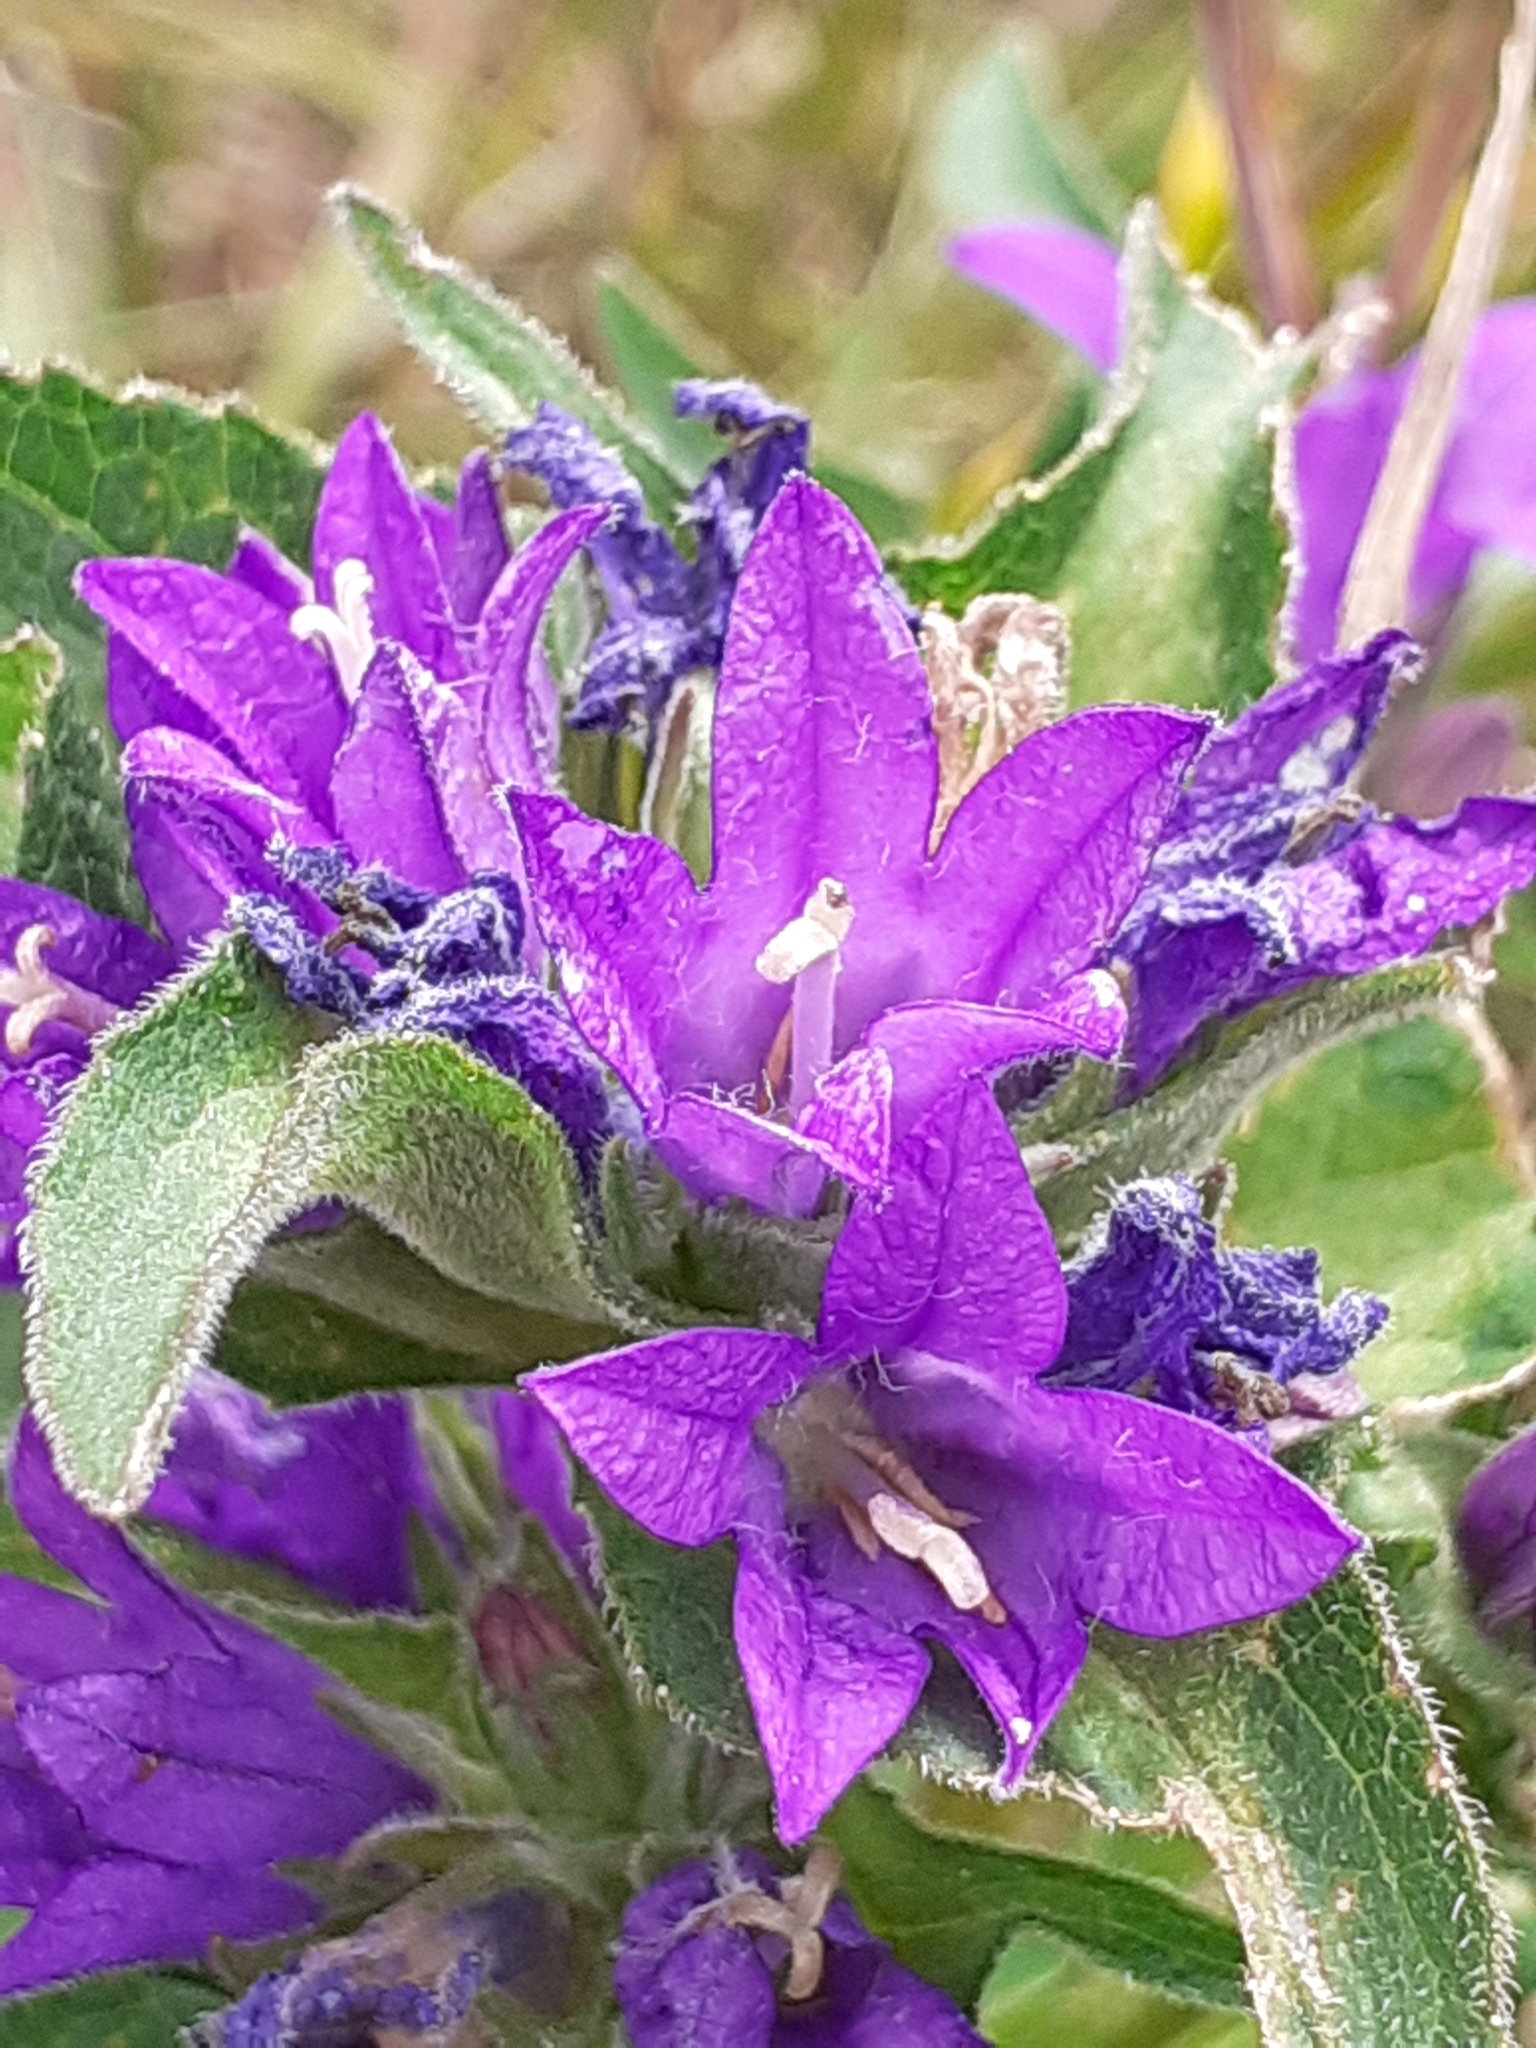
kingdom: Plantae
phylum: Tracheophyta
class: Magnoliopsida
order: Asterales
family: Campanulaceae
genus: Campanula
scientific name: Campanula glomerata
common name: Clustered bellflower
